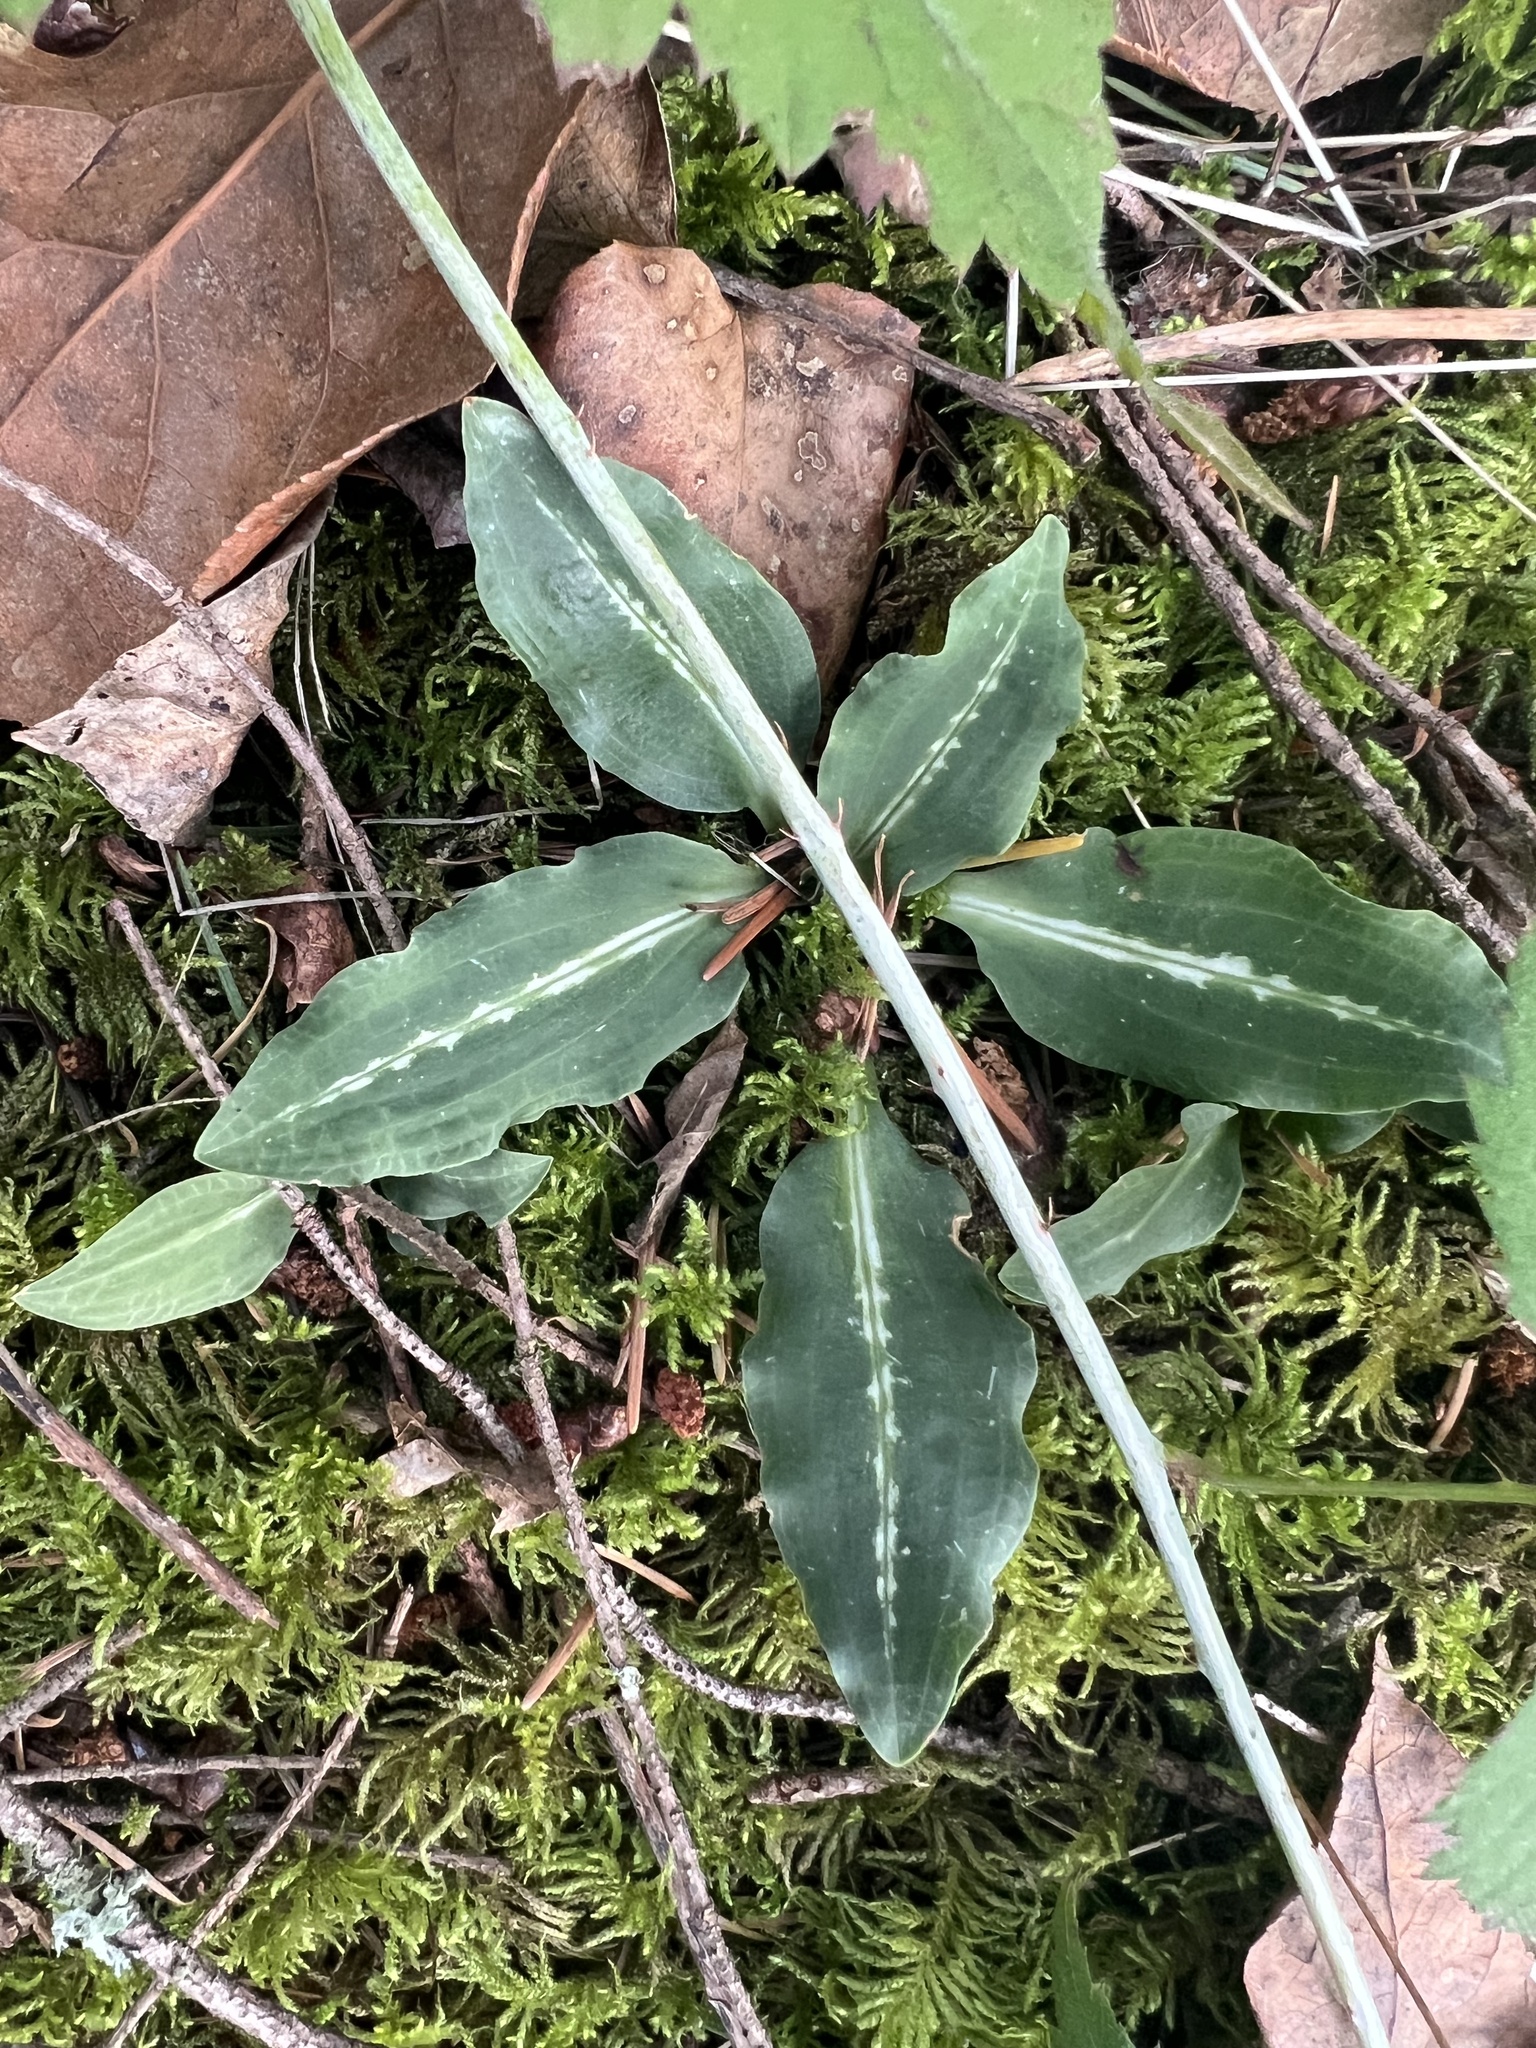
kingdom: Plantae
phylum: Tracheophyta
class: Liliopsida
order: Asparagales
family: Orchidaceae
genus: Goodyera
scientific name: Goodyera oblongifolia
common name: Giant rattlesnake-plantain
